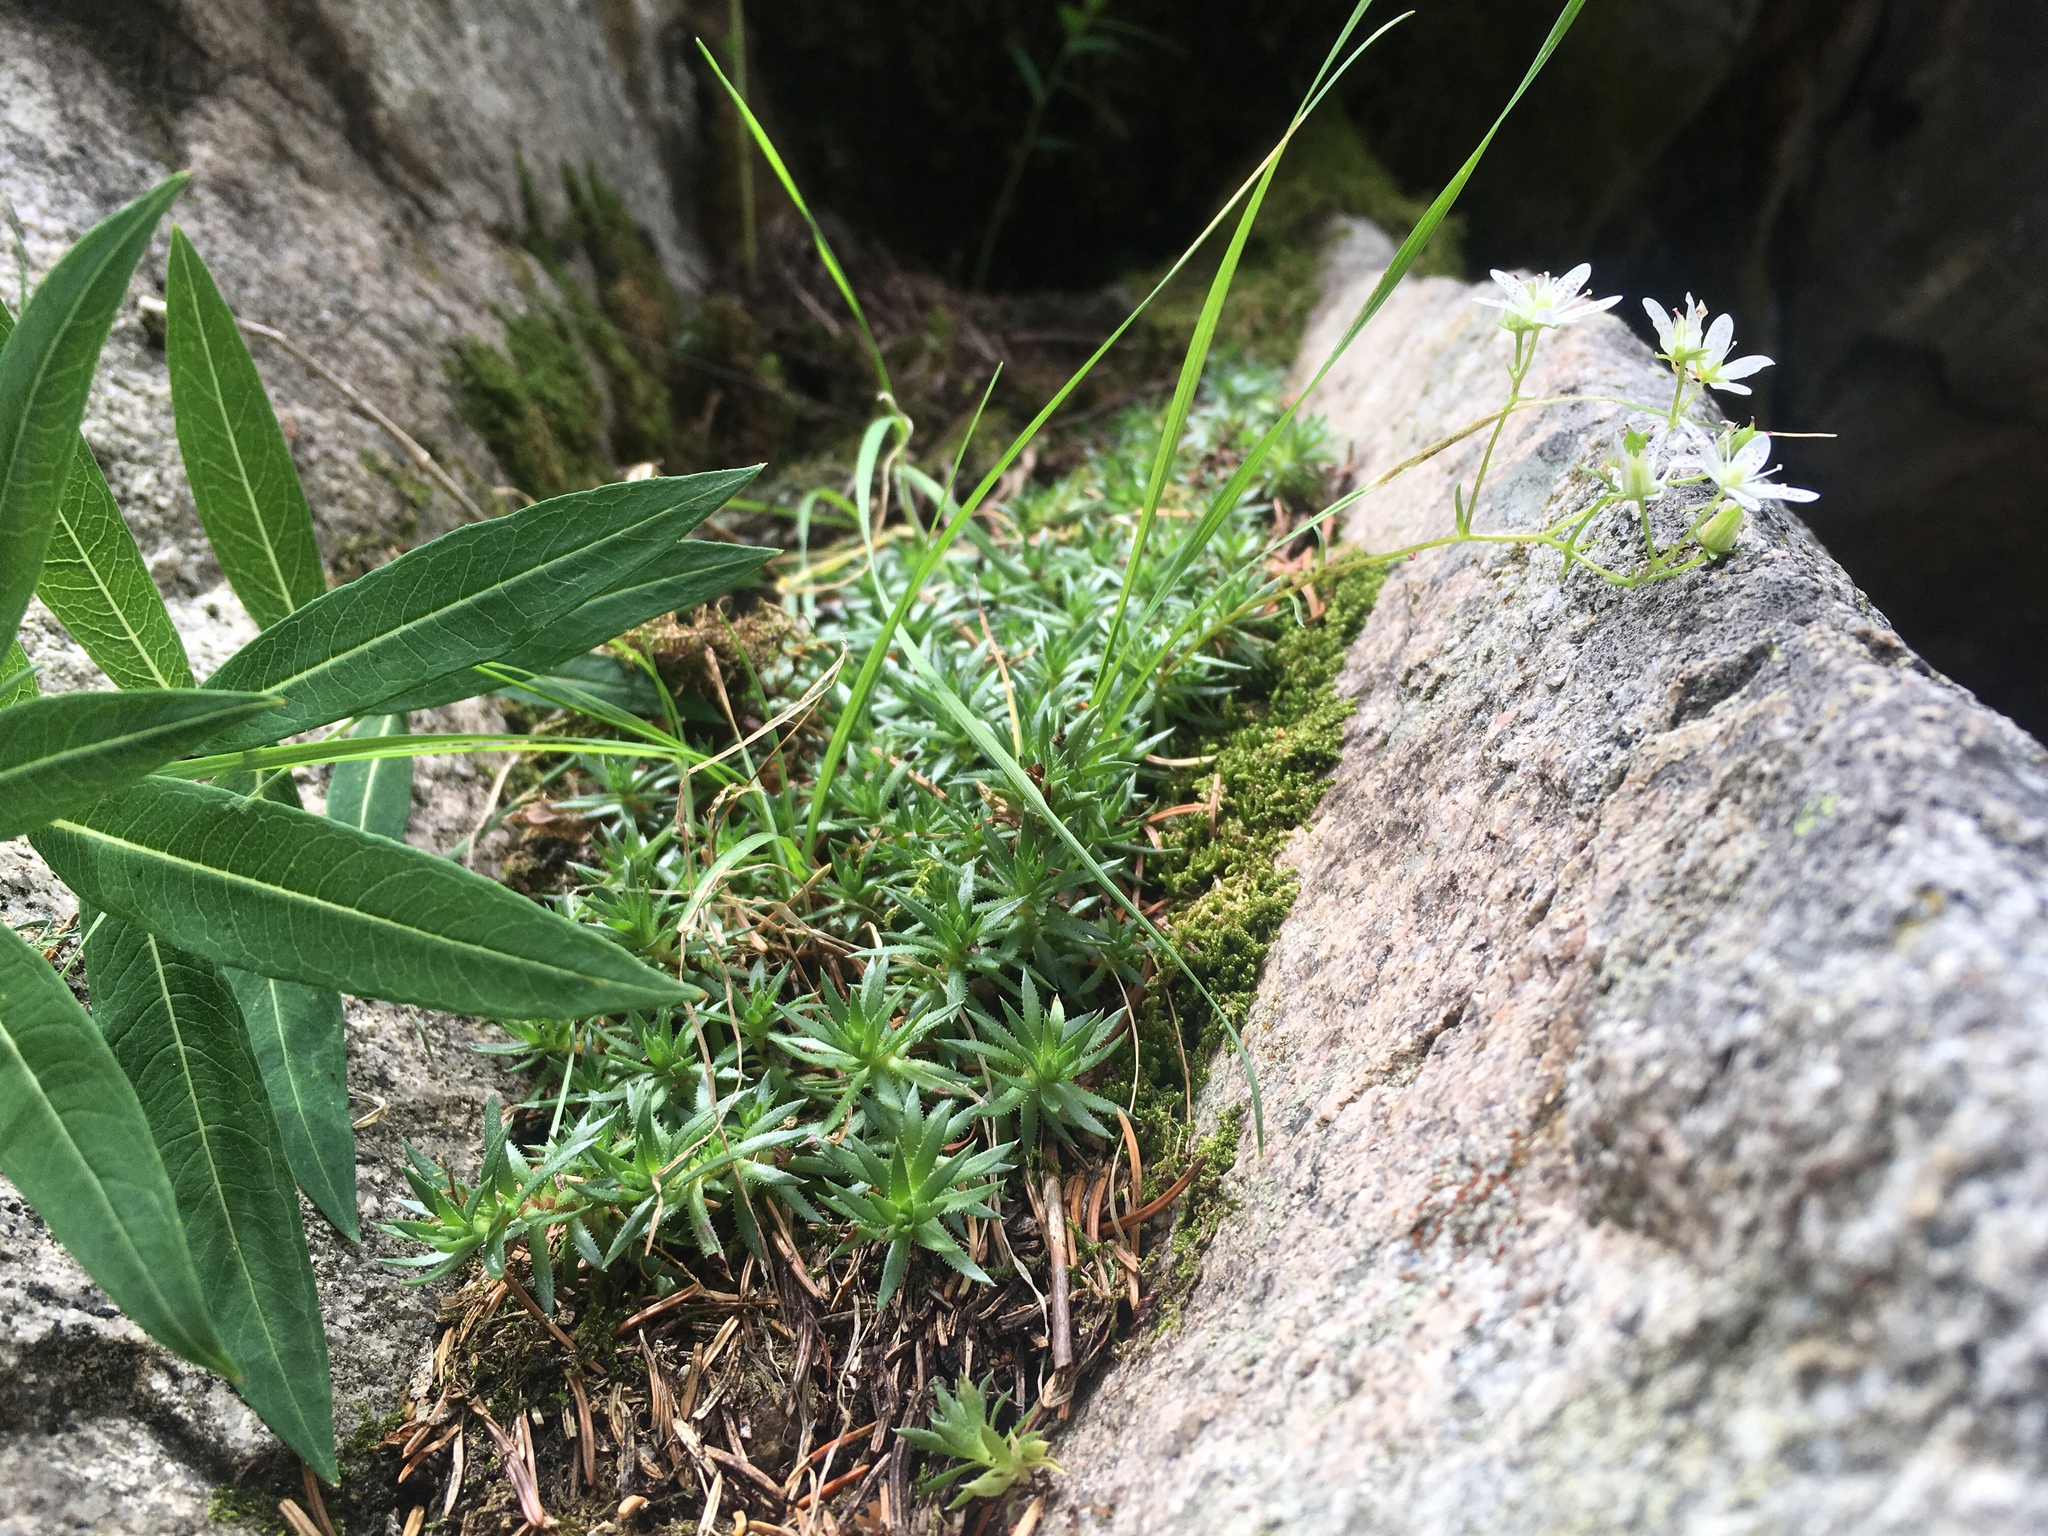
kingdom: Plantae
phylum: Tracheophyta
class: Magnoliopsida
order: Saxifragales
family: Saxifragaceae
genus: Saxifraga
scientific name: Saxifraga bronchialis
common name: Matted saxifrage
